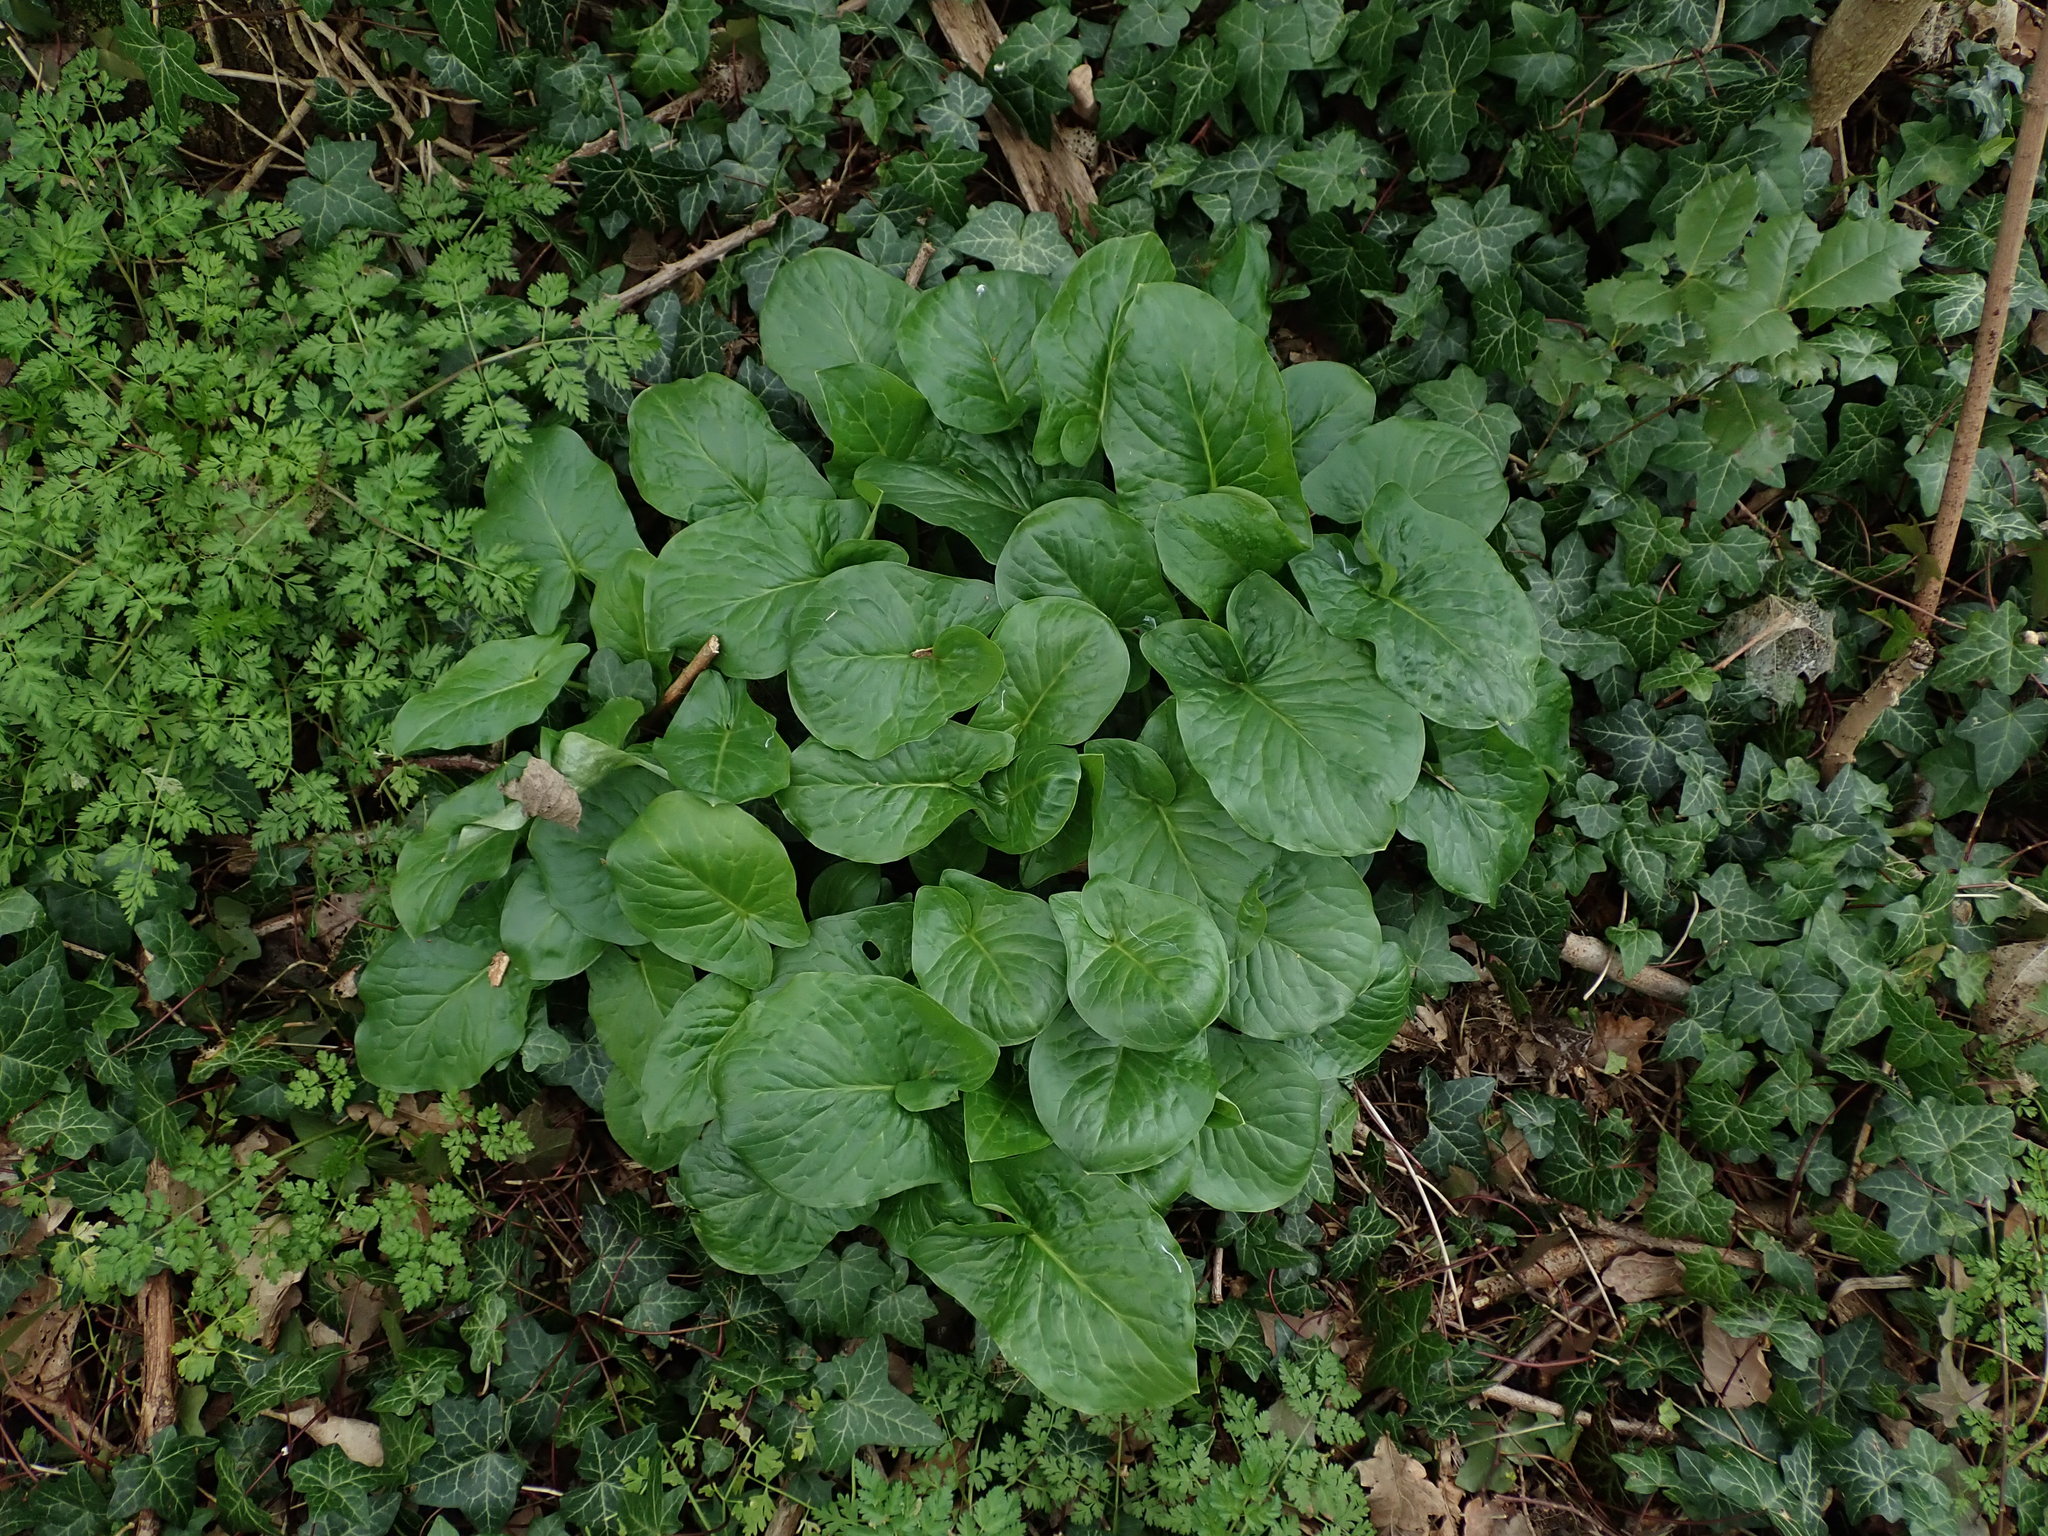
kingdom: Plantae
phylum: Tracheophyta
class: Liliopsida
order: Alismatales
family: Araceae
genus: Arum
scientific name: Arum maculatum
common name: Lords-and-ladies
